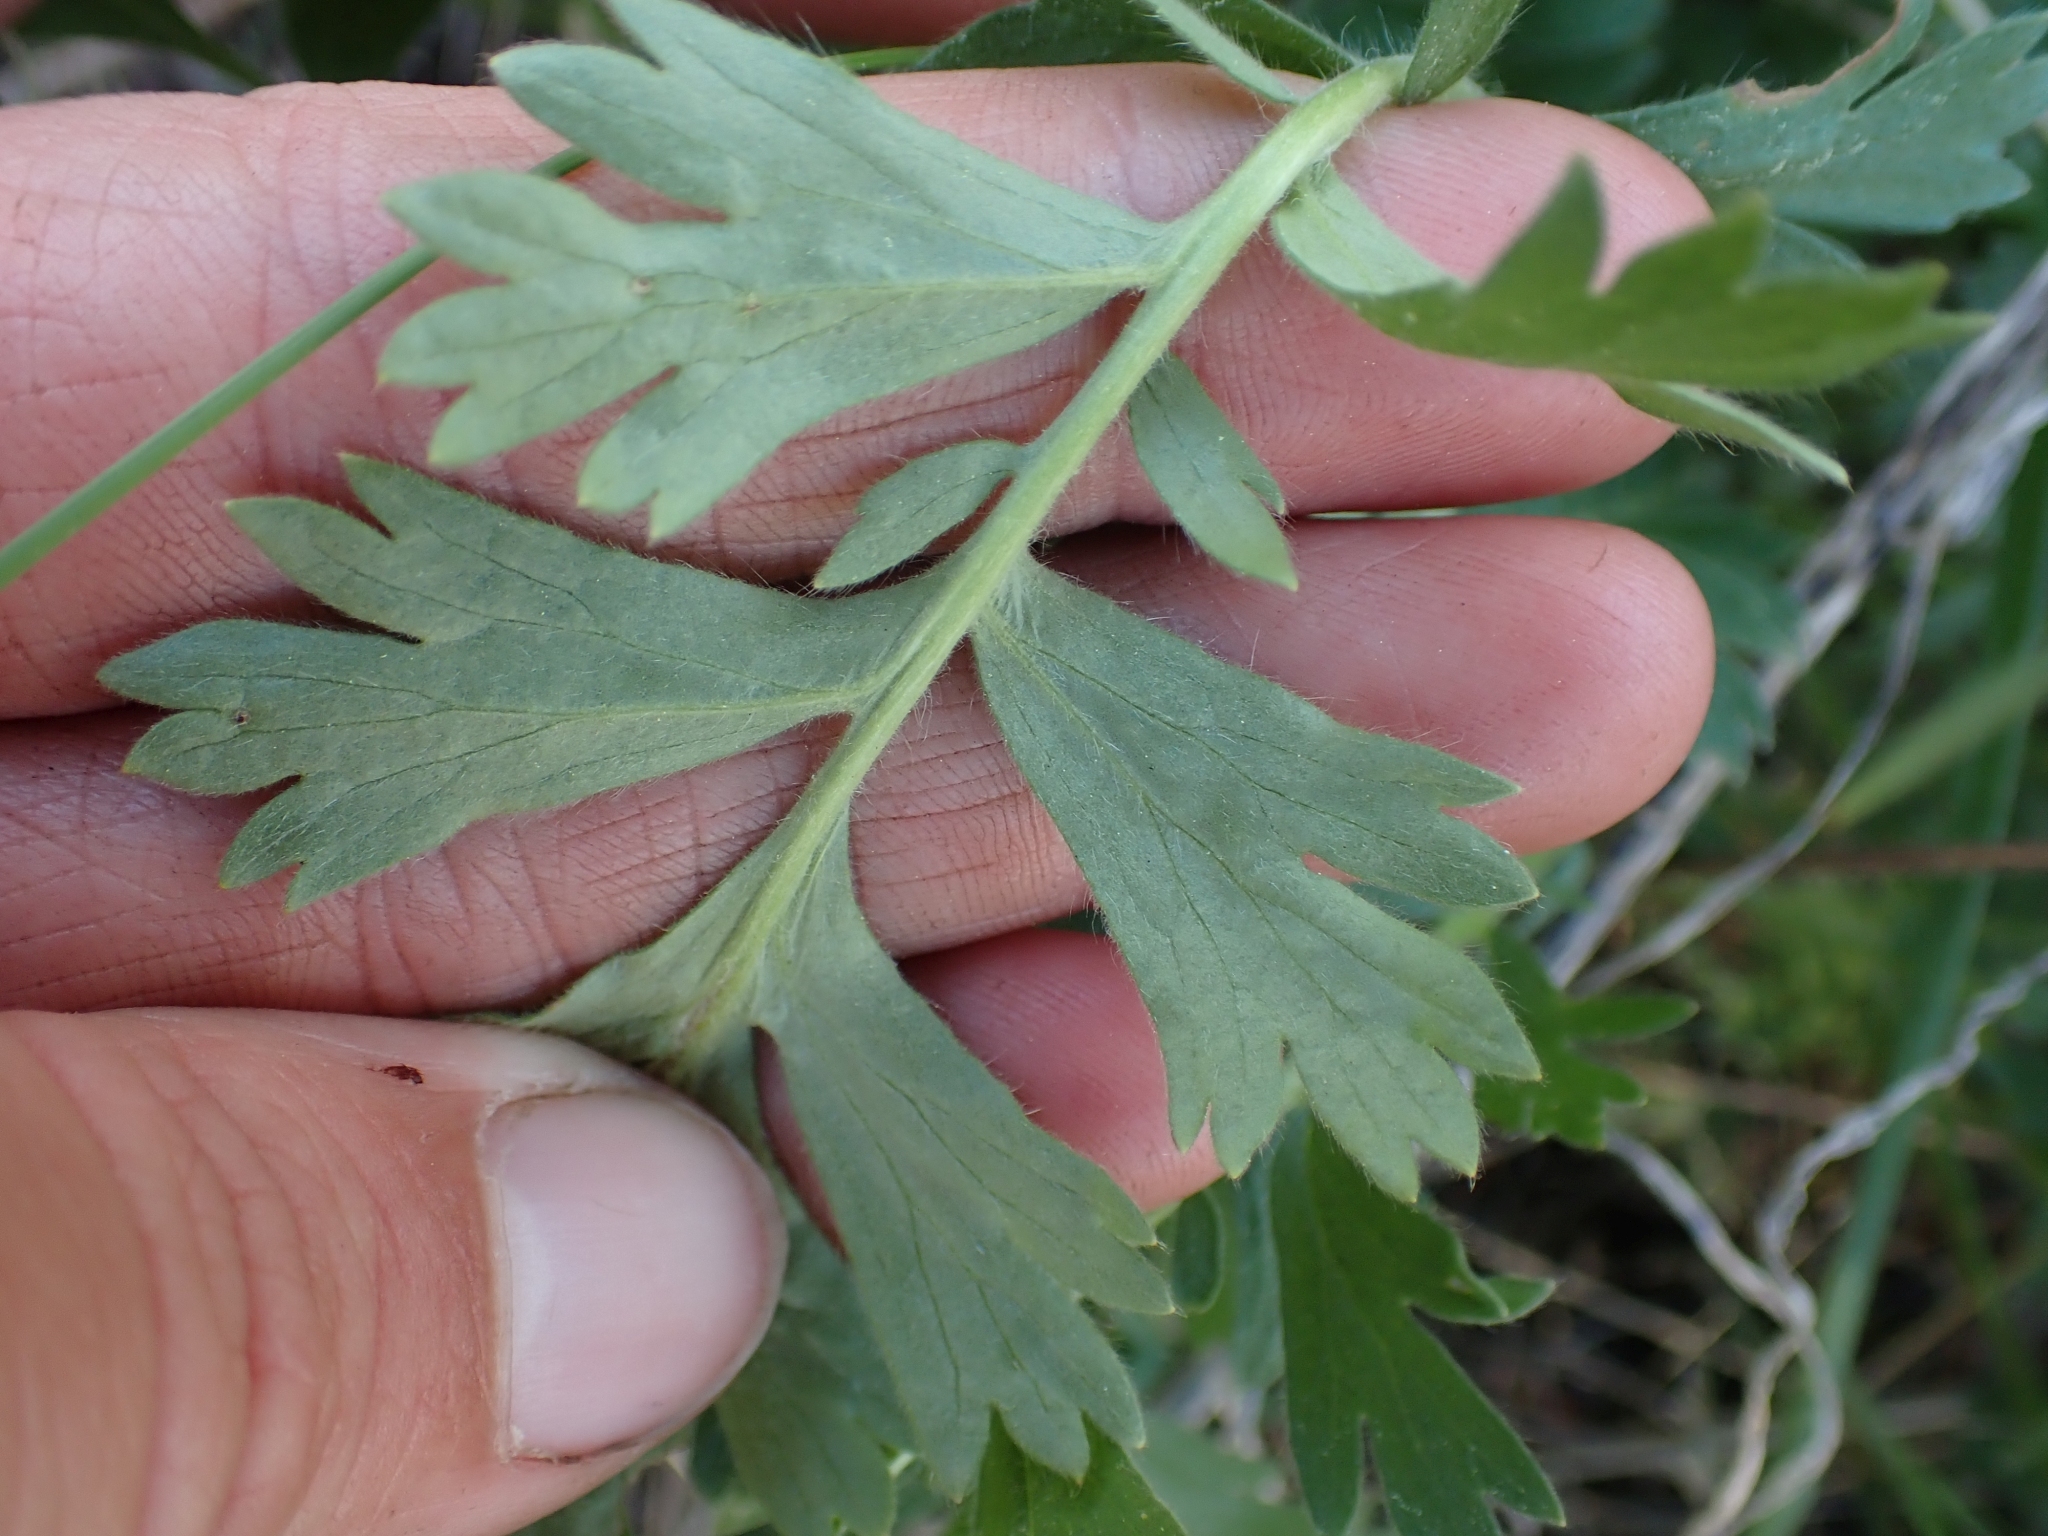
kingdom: Plantae
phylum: Tracheophyta
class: Magnoliopsida
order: Rosales
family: Rosaceae
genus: Geum
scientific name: Geum triflorum
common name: Old man's whiskers
